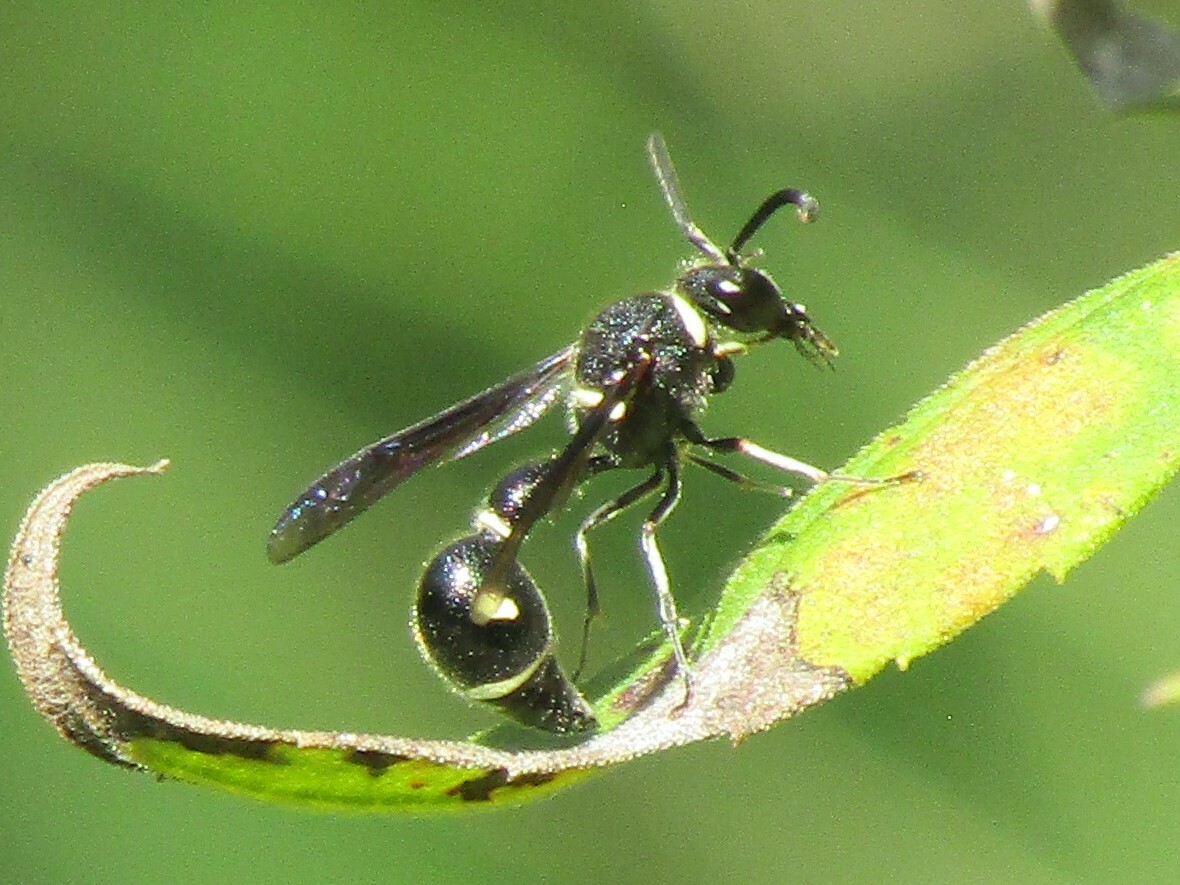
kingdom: Animalia
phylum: Arthropoda
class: Insecta
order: Hymenoptera
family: Vespidae
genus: Eumenes
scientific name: Eumenes fraternus
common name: Fraternal potter wasp
